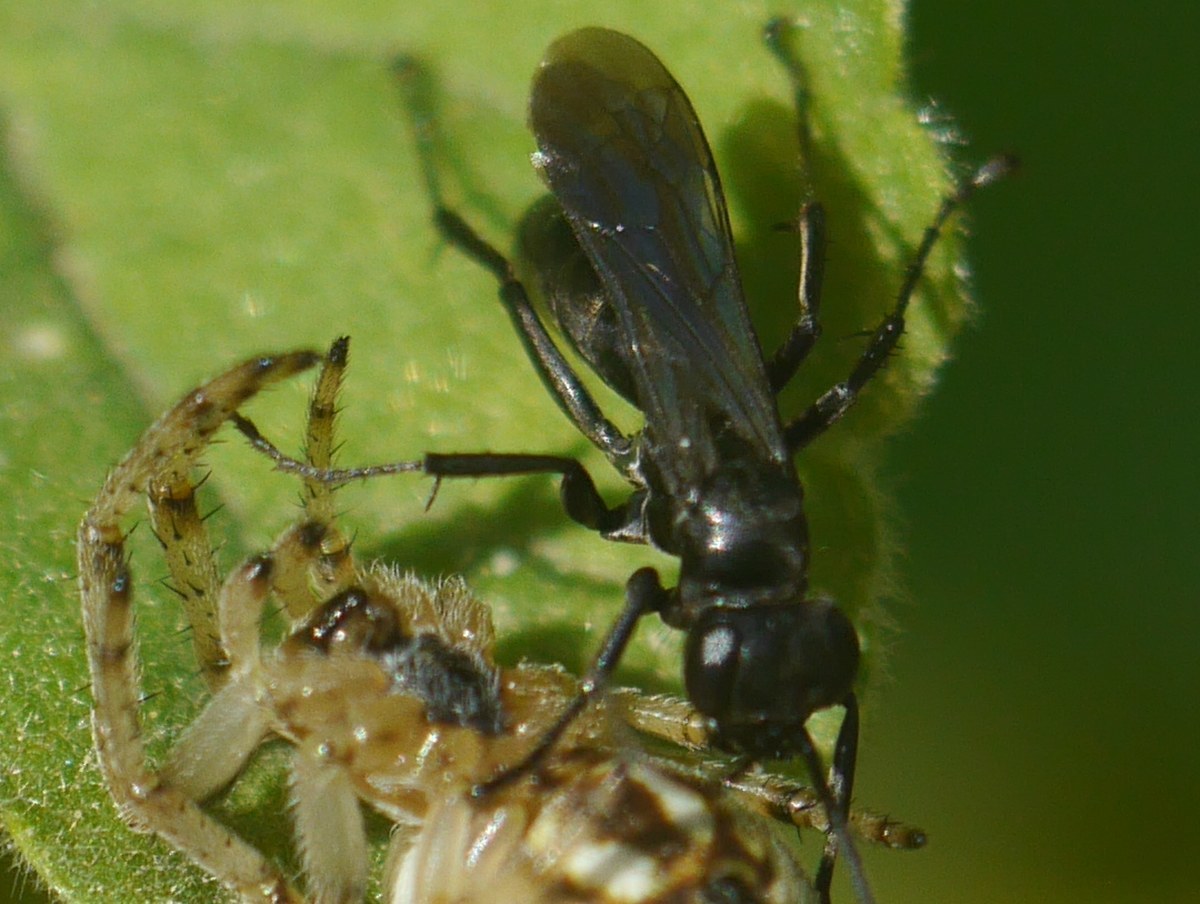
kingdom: Animalia
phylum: Arthropoda
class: Insecta
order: Hymenoptera
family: Pompilidae
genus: Anoplius
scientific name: Anoplius caviventris
